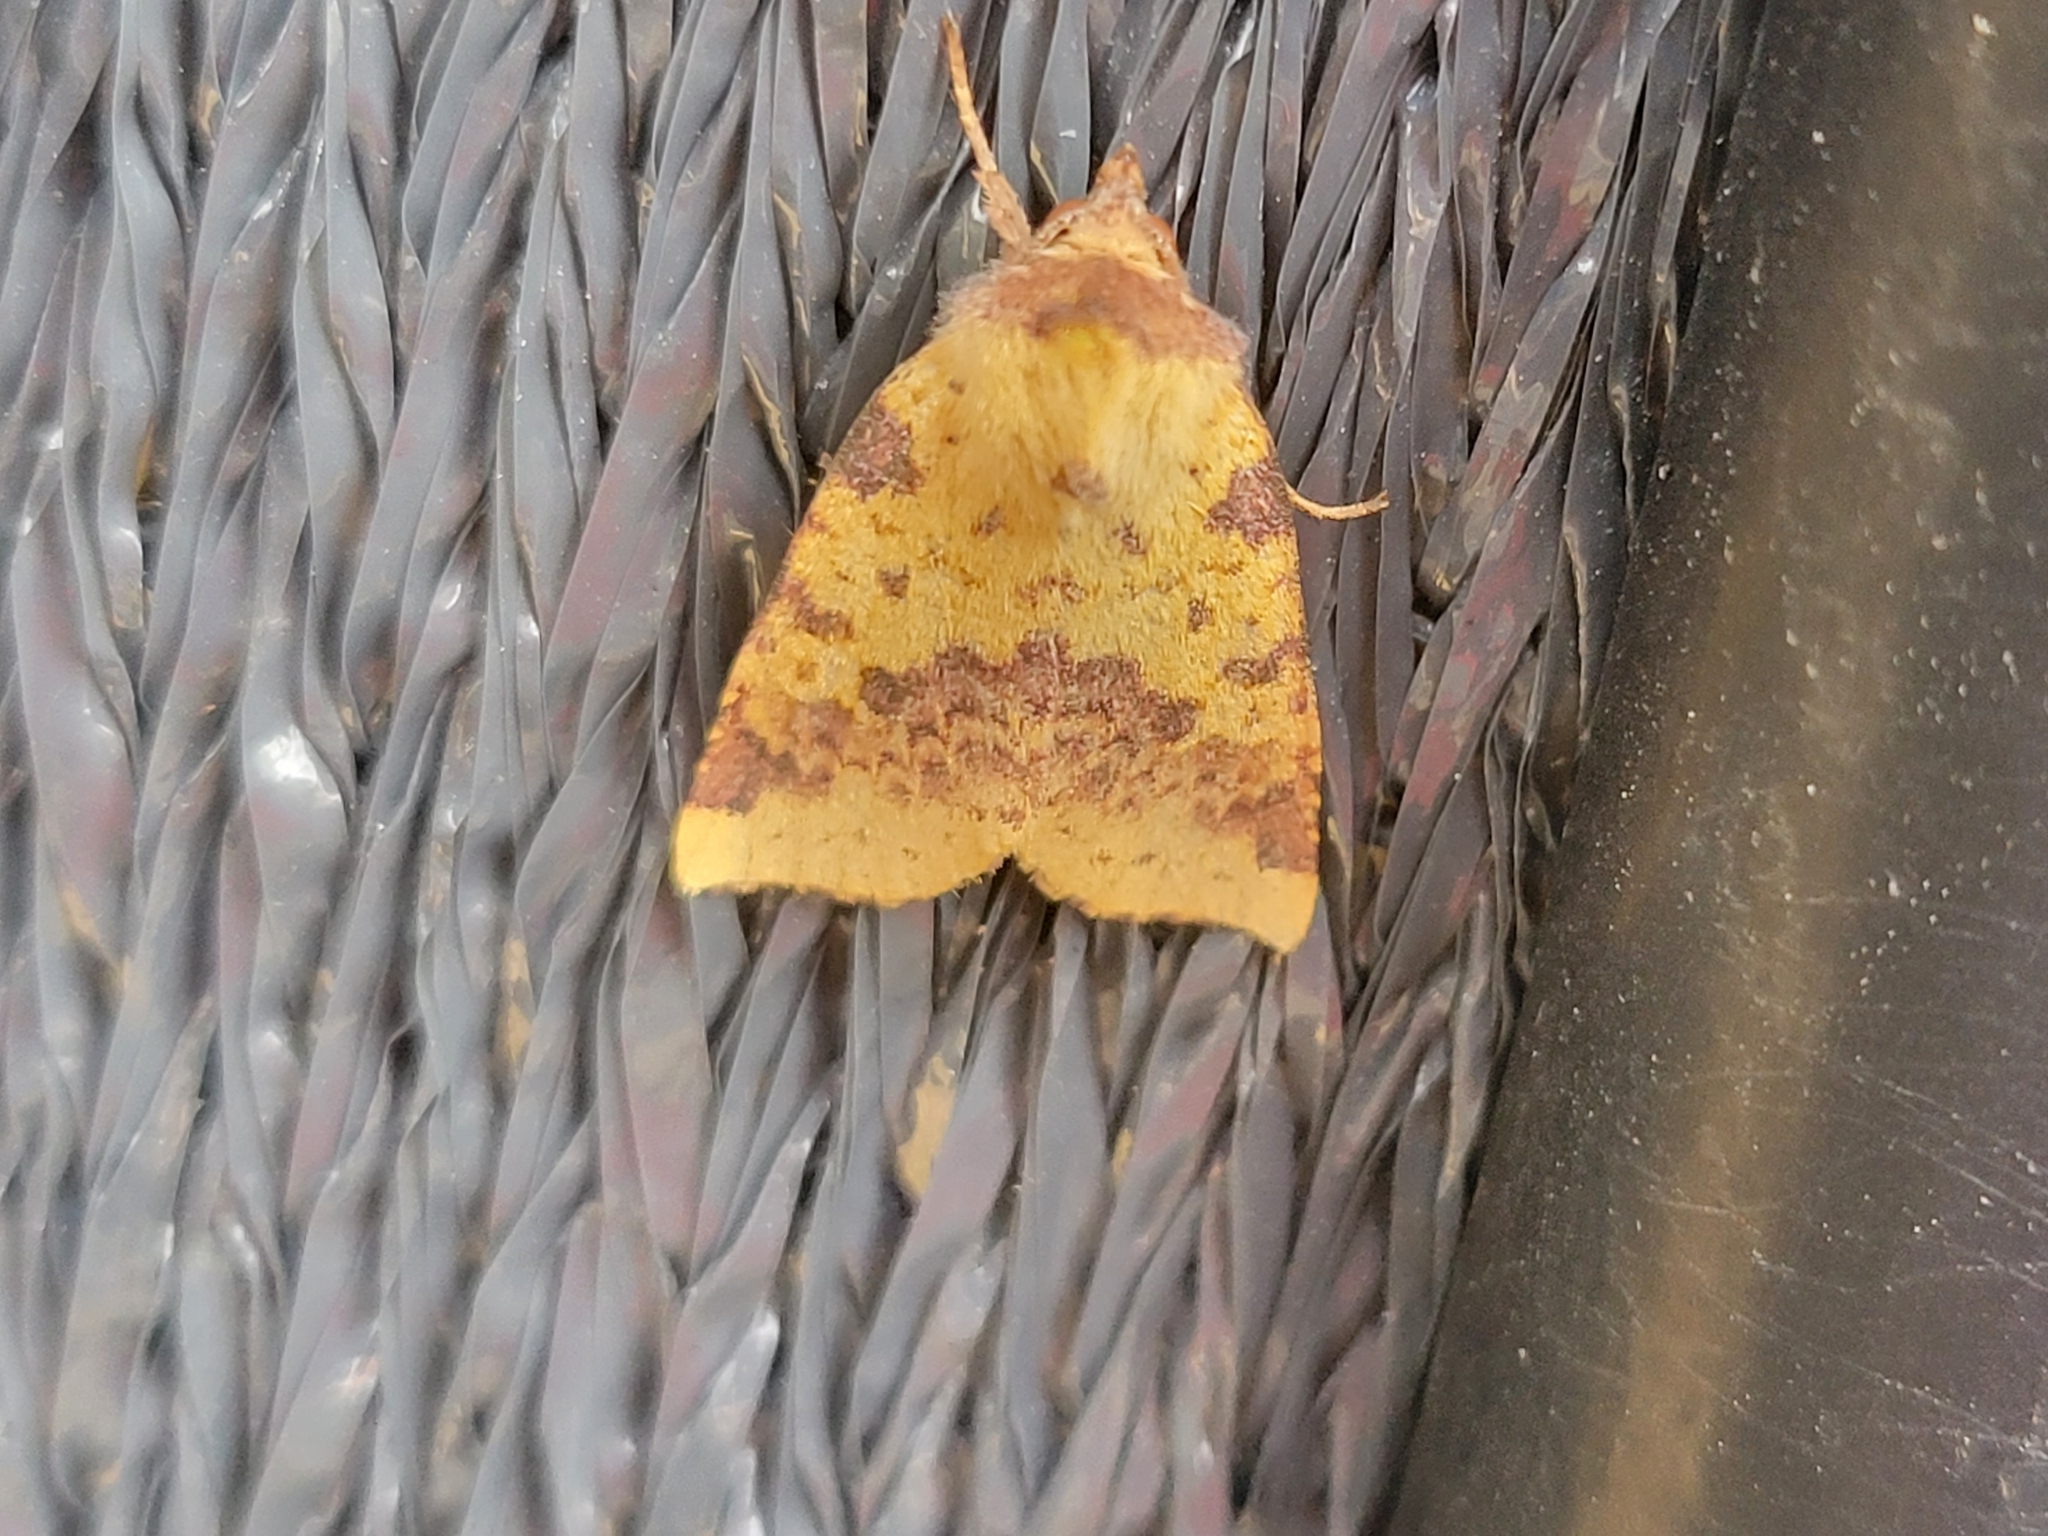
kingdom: Animalia
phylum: Arthropoda
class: Insecta
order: Lepidoptera
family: Noctuidae
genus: Xanthia
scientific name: Xanthia togata
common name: Pink-barred sallow
